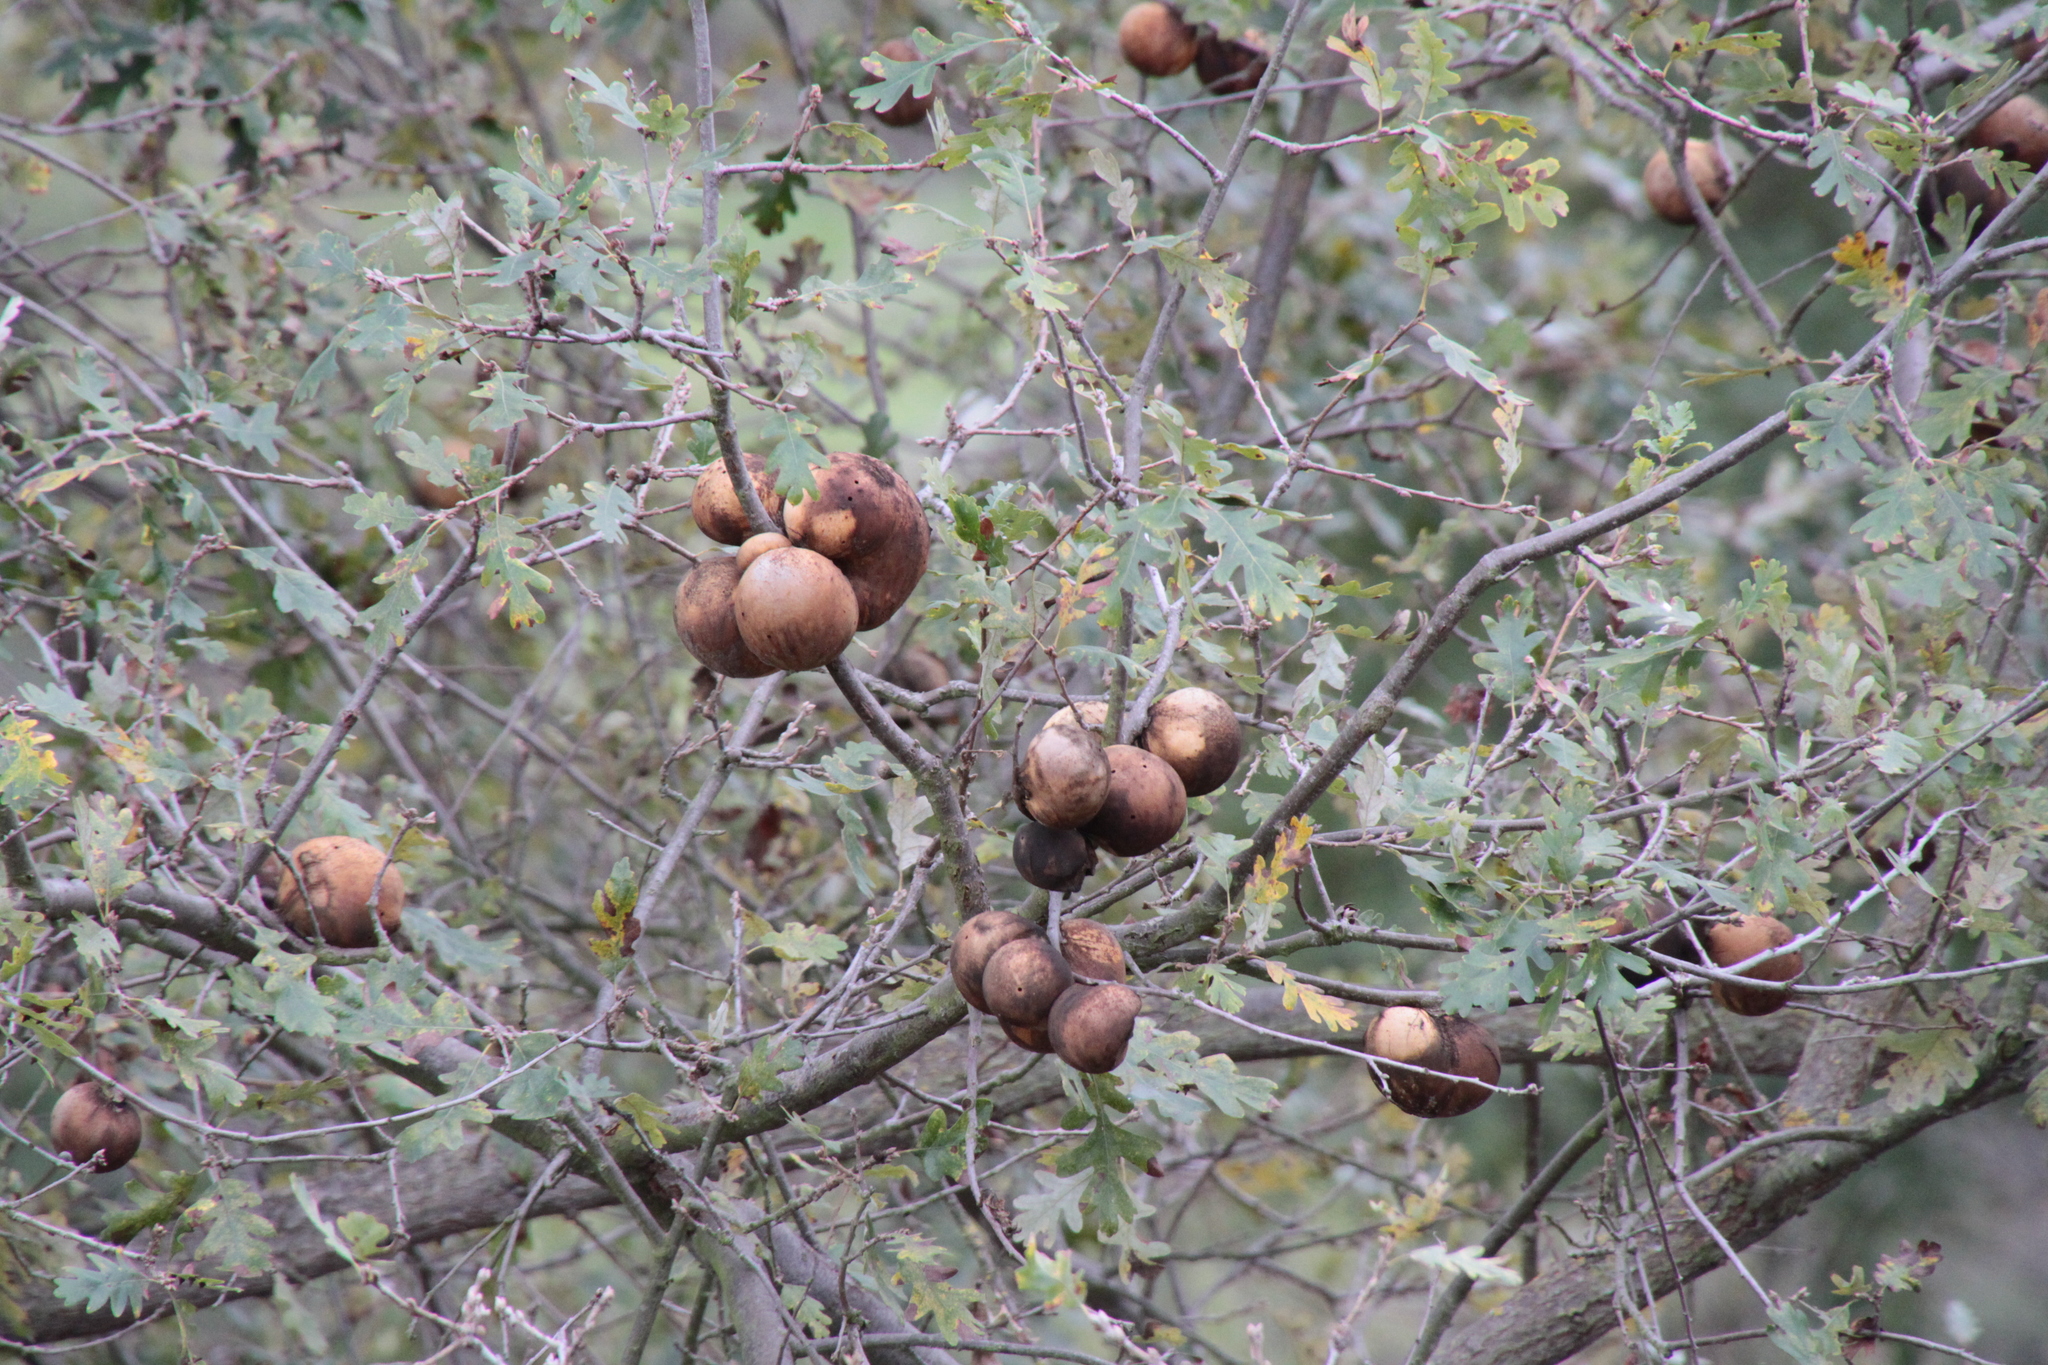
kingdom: Animalia
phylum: Arthropoda
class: Insecta
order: Hymenoptera
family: Cynipidae
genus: Andricus
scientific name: Andricus quercuscalifornicus
